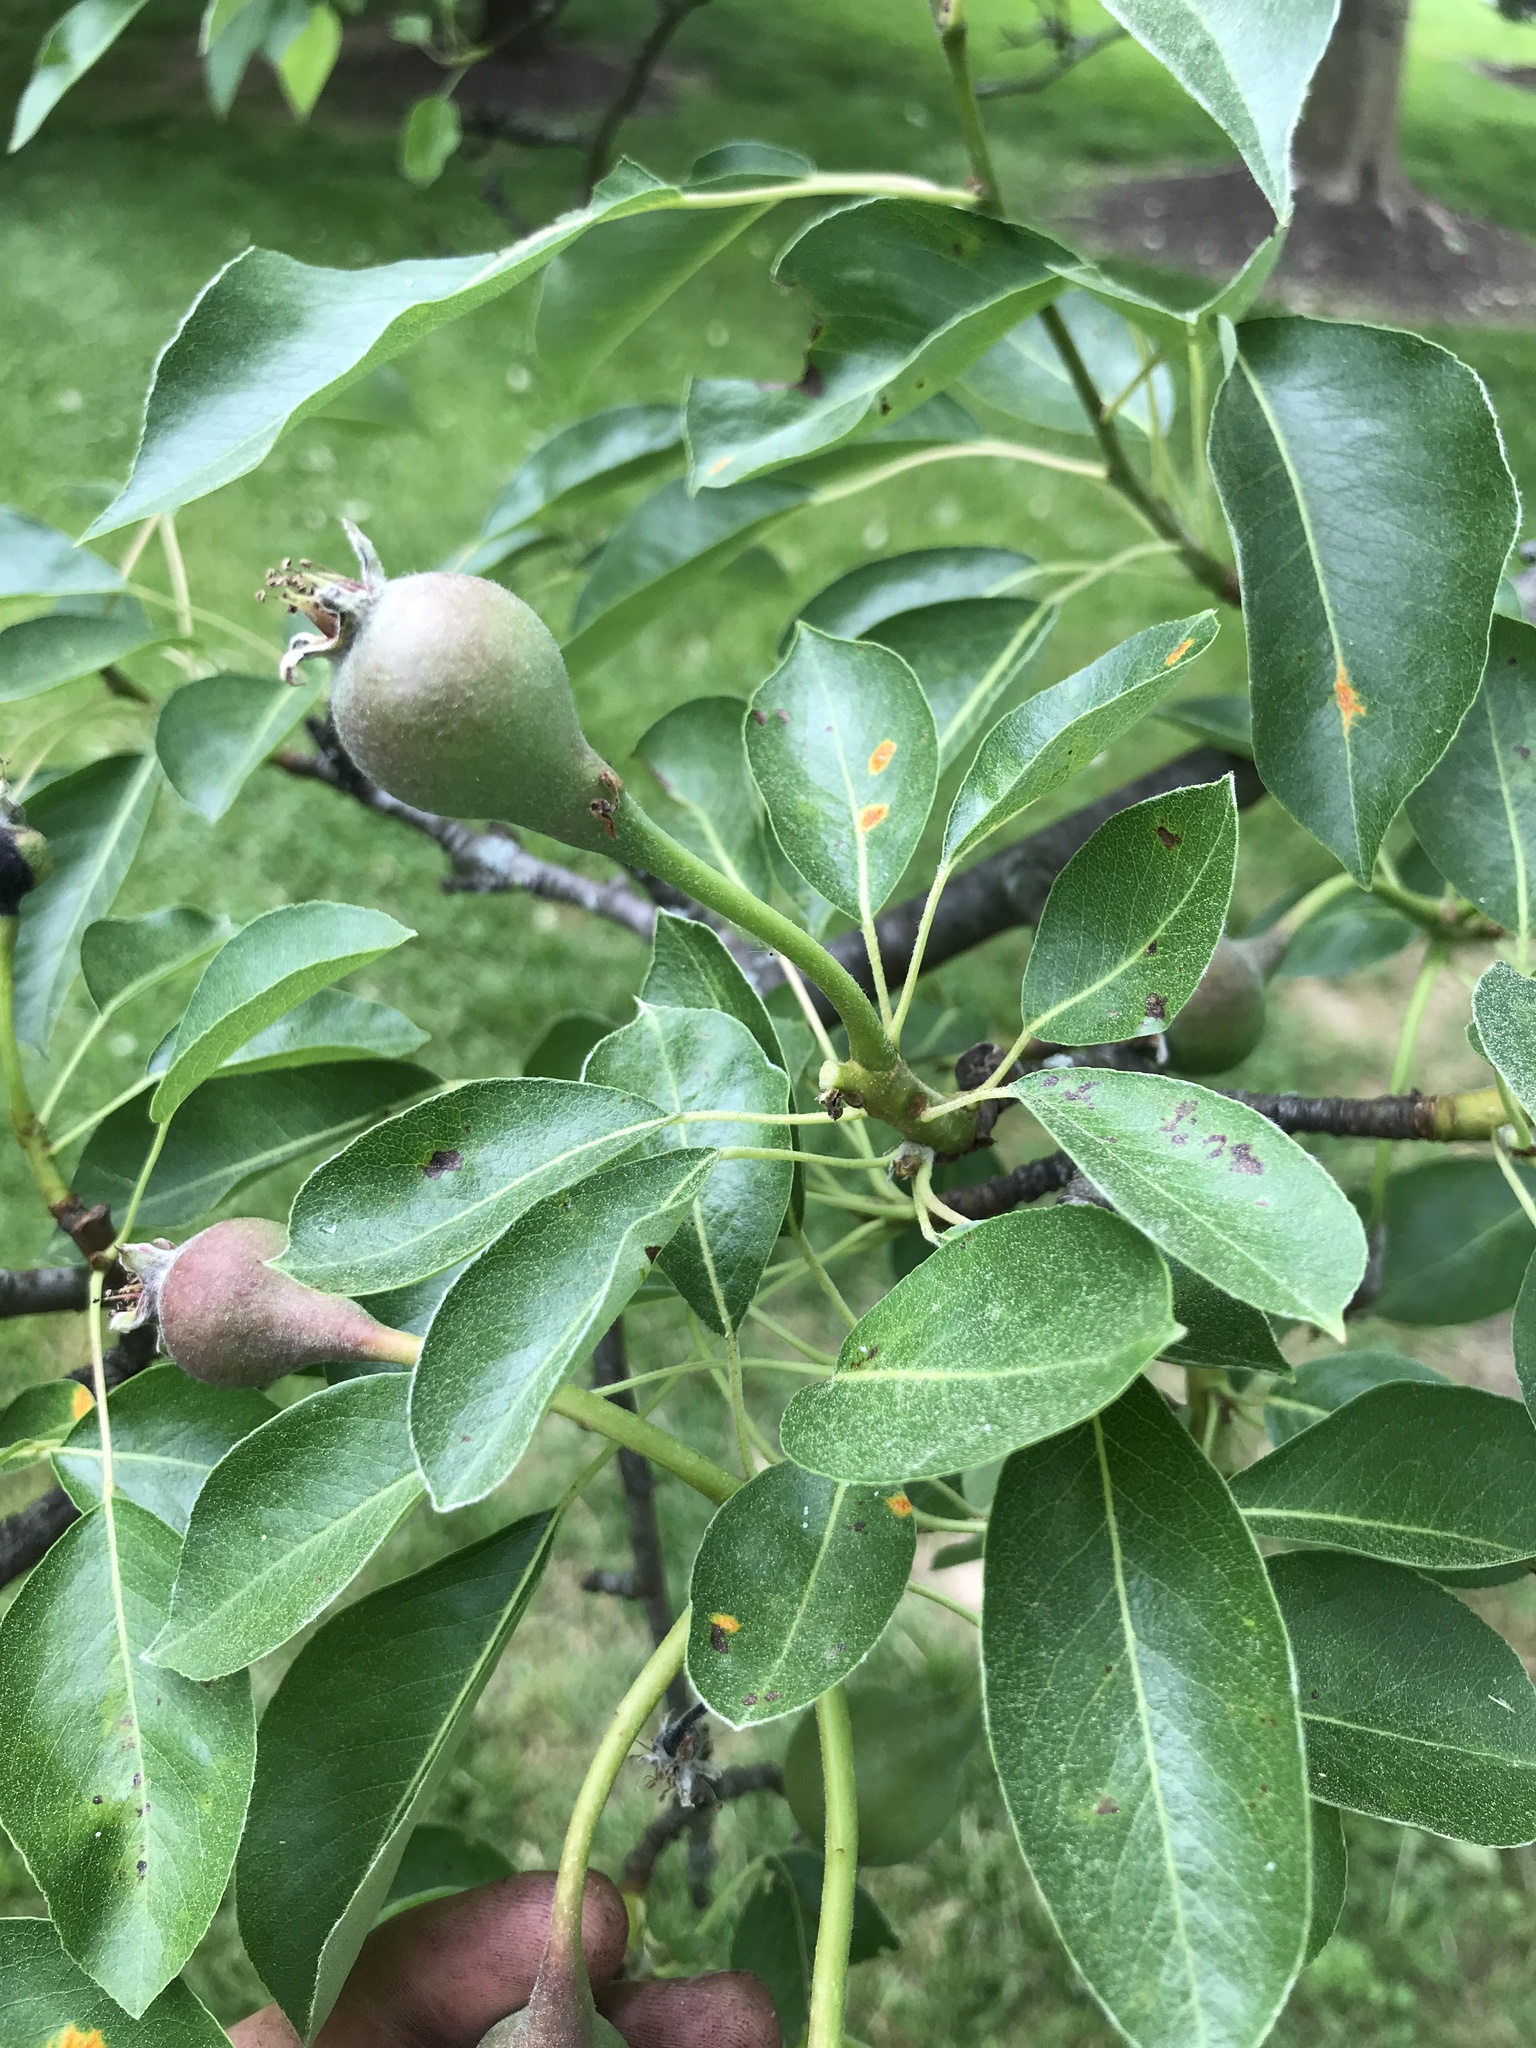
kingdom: Fungi
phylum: Basidiomycota
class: Pucciniomycetes
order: Pucciniales
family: Gymnosporangiaceae
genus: Gymnosporangium
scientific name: Gymnosporangium sabinae
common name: Pear trellis rust fungus
